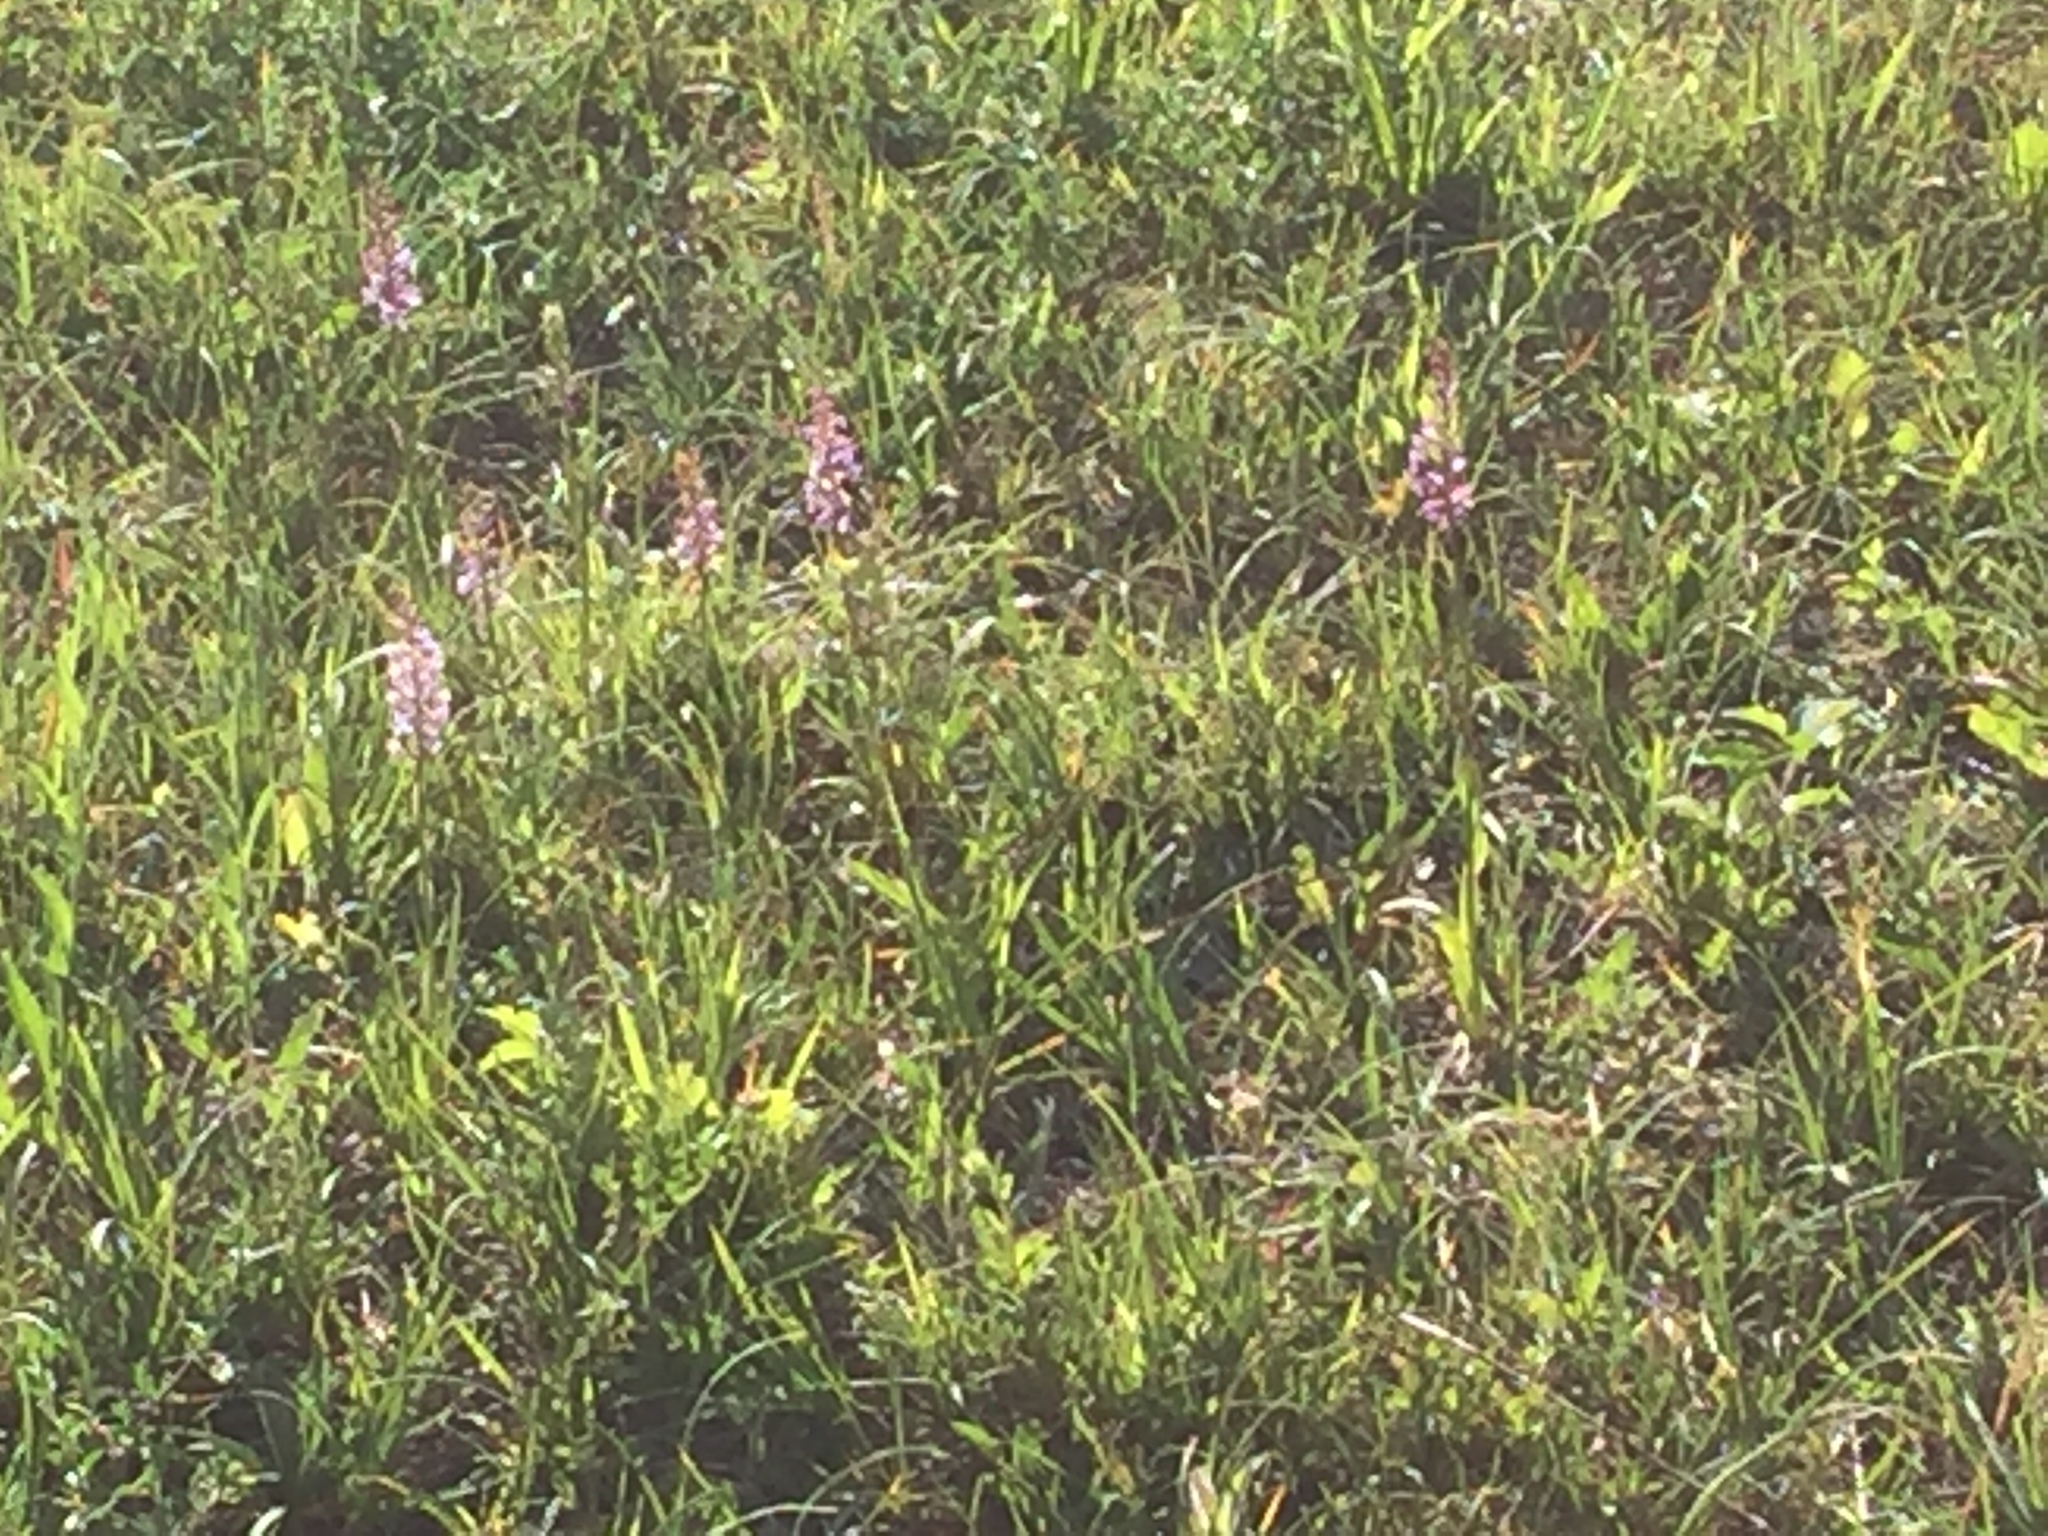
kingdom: Plantae
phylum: Tracheophyta
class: Liliopsida
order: Asparagales
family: Orchidaceae
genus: Gymnadenia
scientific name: Gymnadenia conopsea
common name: Fragrant orchid
